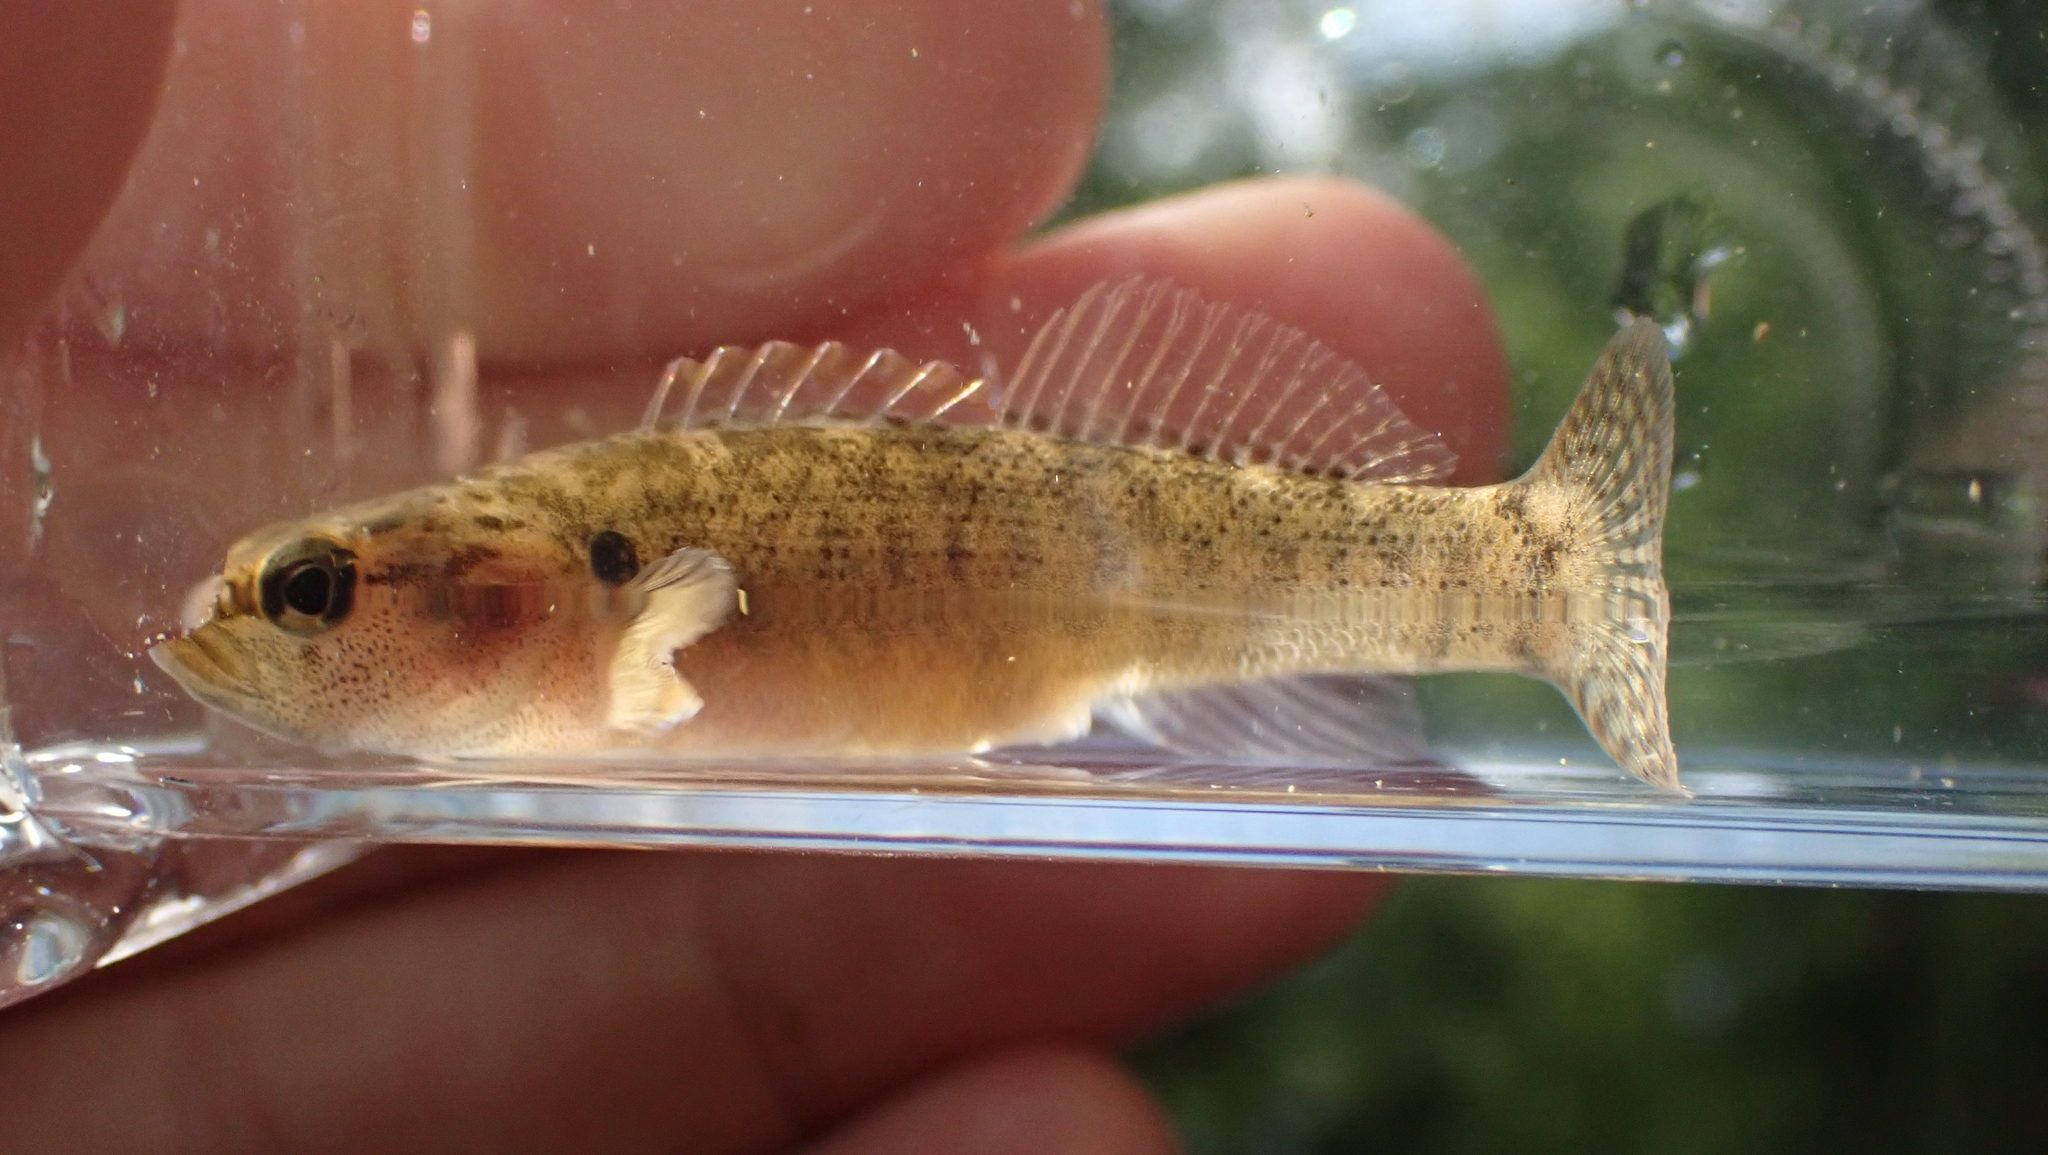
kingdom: Animalia
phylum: Chordata
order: Perciformes
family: Percidae
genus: Etheostoma
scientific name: Etheostoma flabellare
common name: Fantail darter
